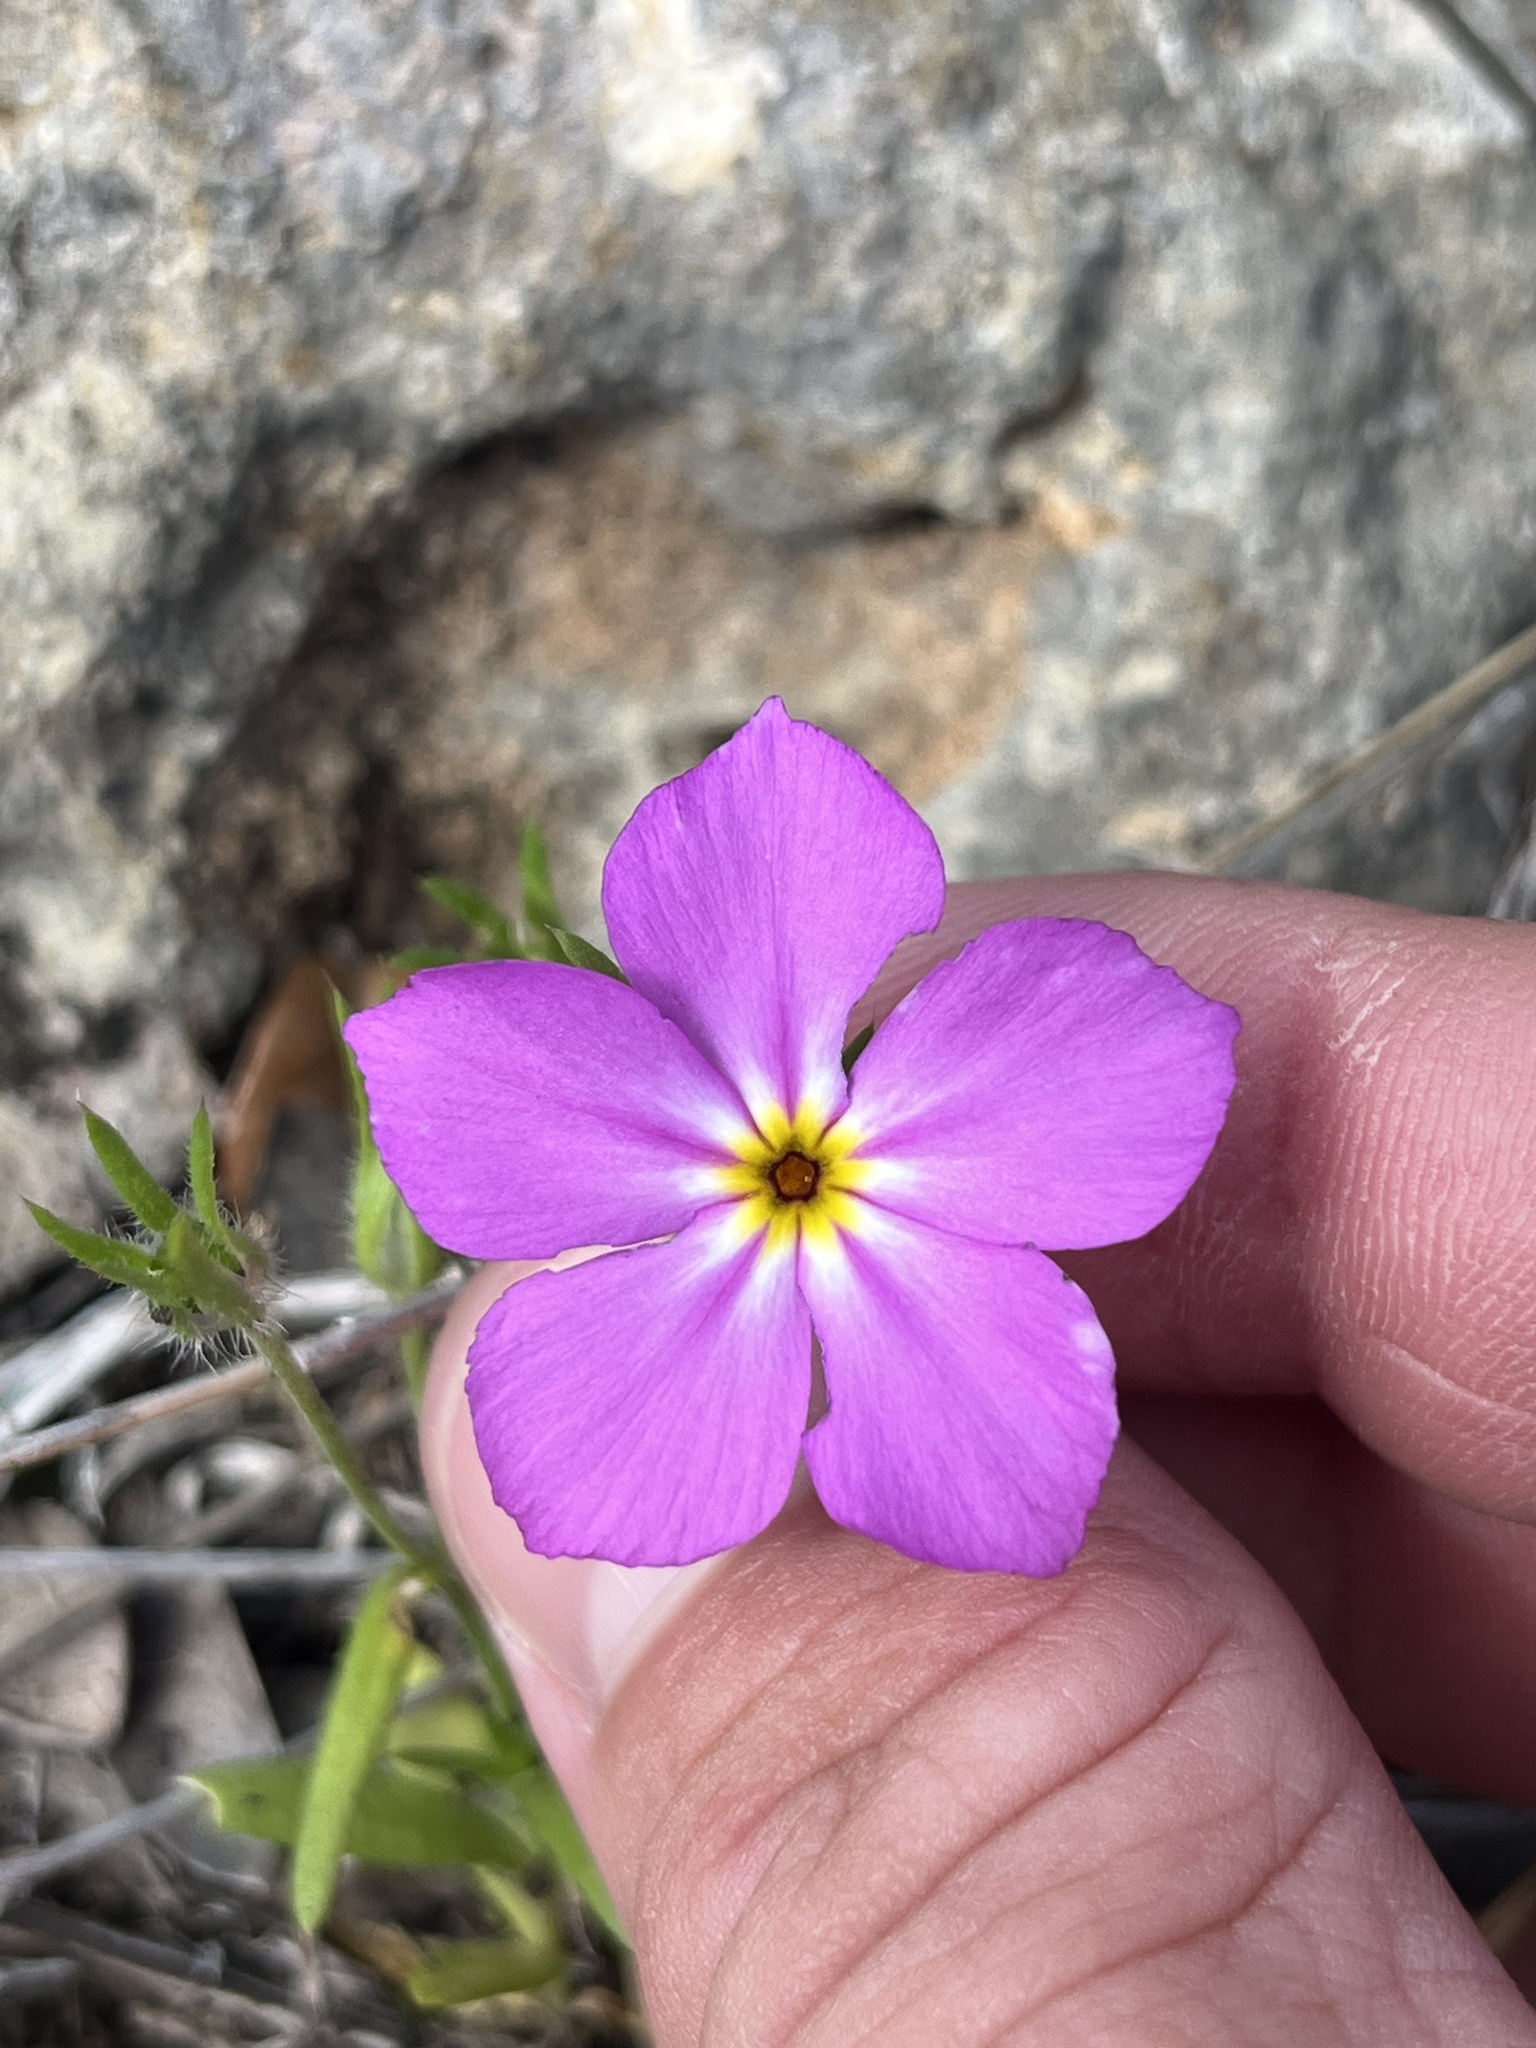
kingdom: Plantae
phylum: Tracheophyta
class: Magnoliopsida
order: Ericales
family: Polemoniaceae
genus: Phlox
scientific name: Phlox roemeriana
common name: Roemer's phlox
